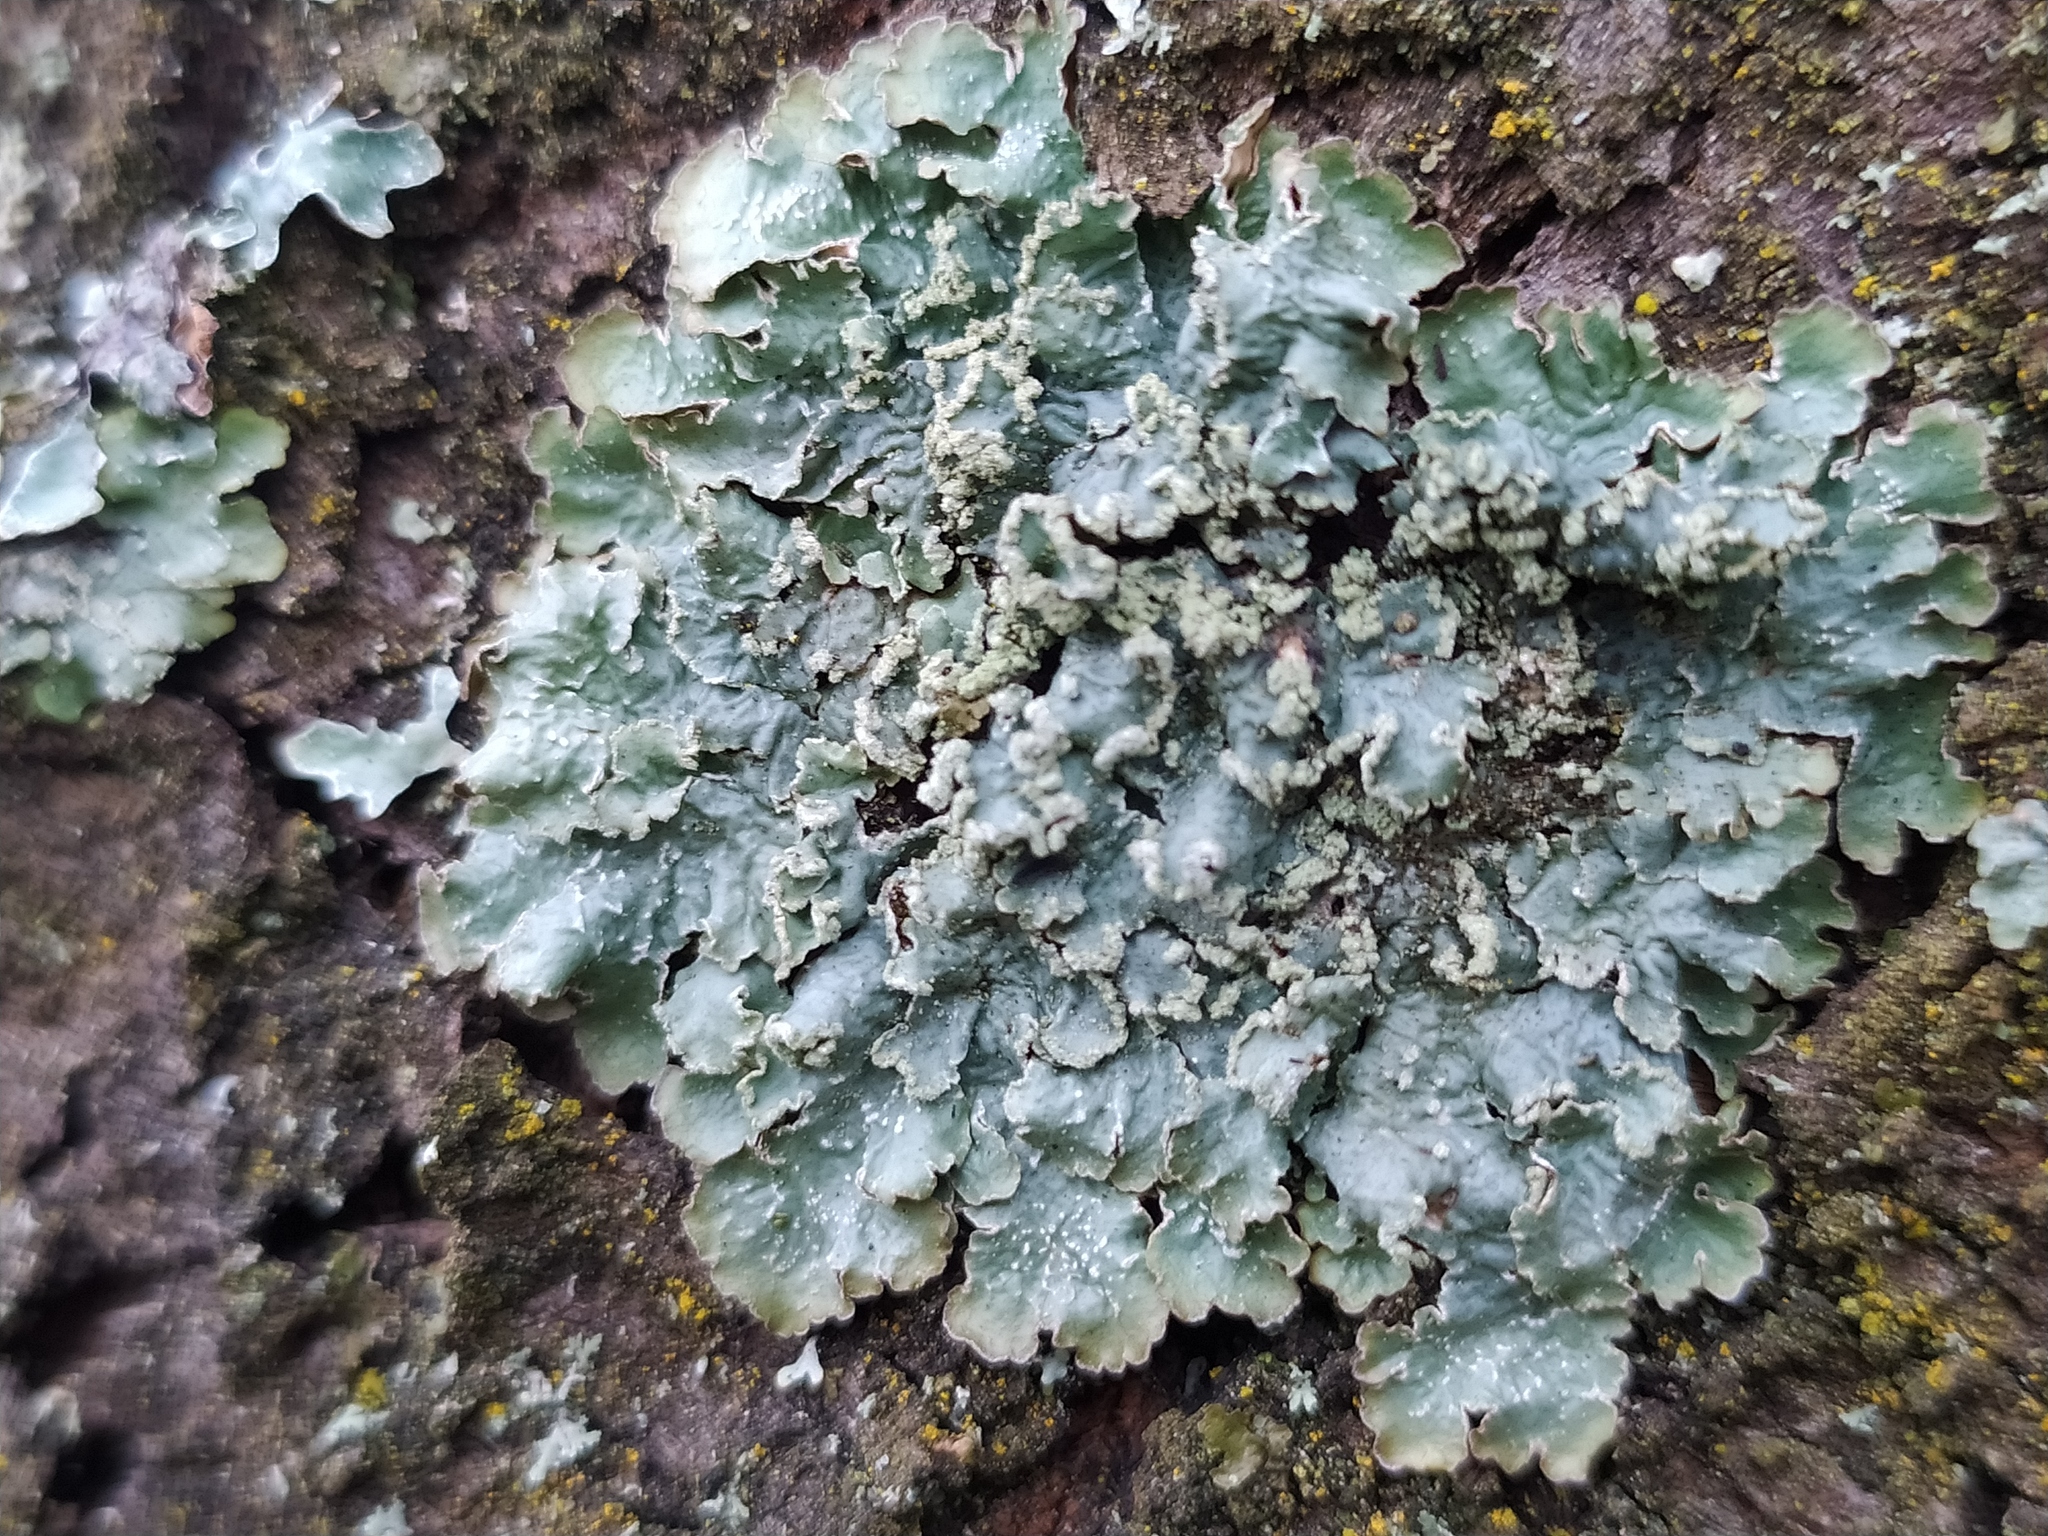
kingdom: Fungi
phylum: Ascomycota
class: Lecanoromycetes
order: Lecanorales
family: Parmeliaceae
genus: Punctelia
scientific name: Punctelia jeckeri
